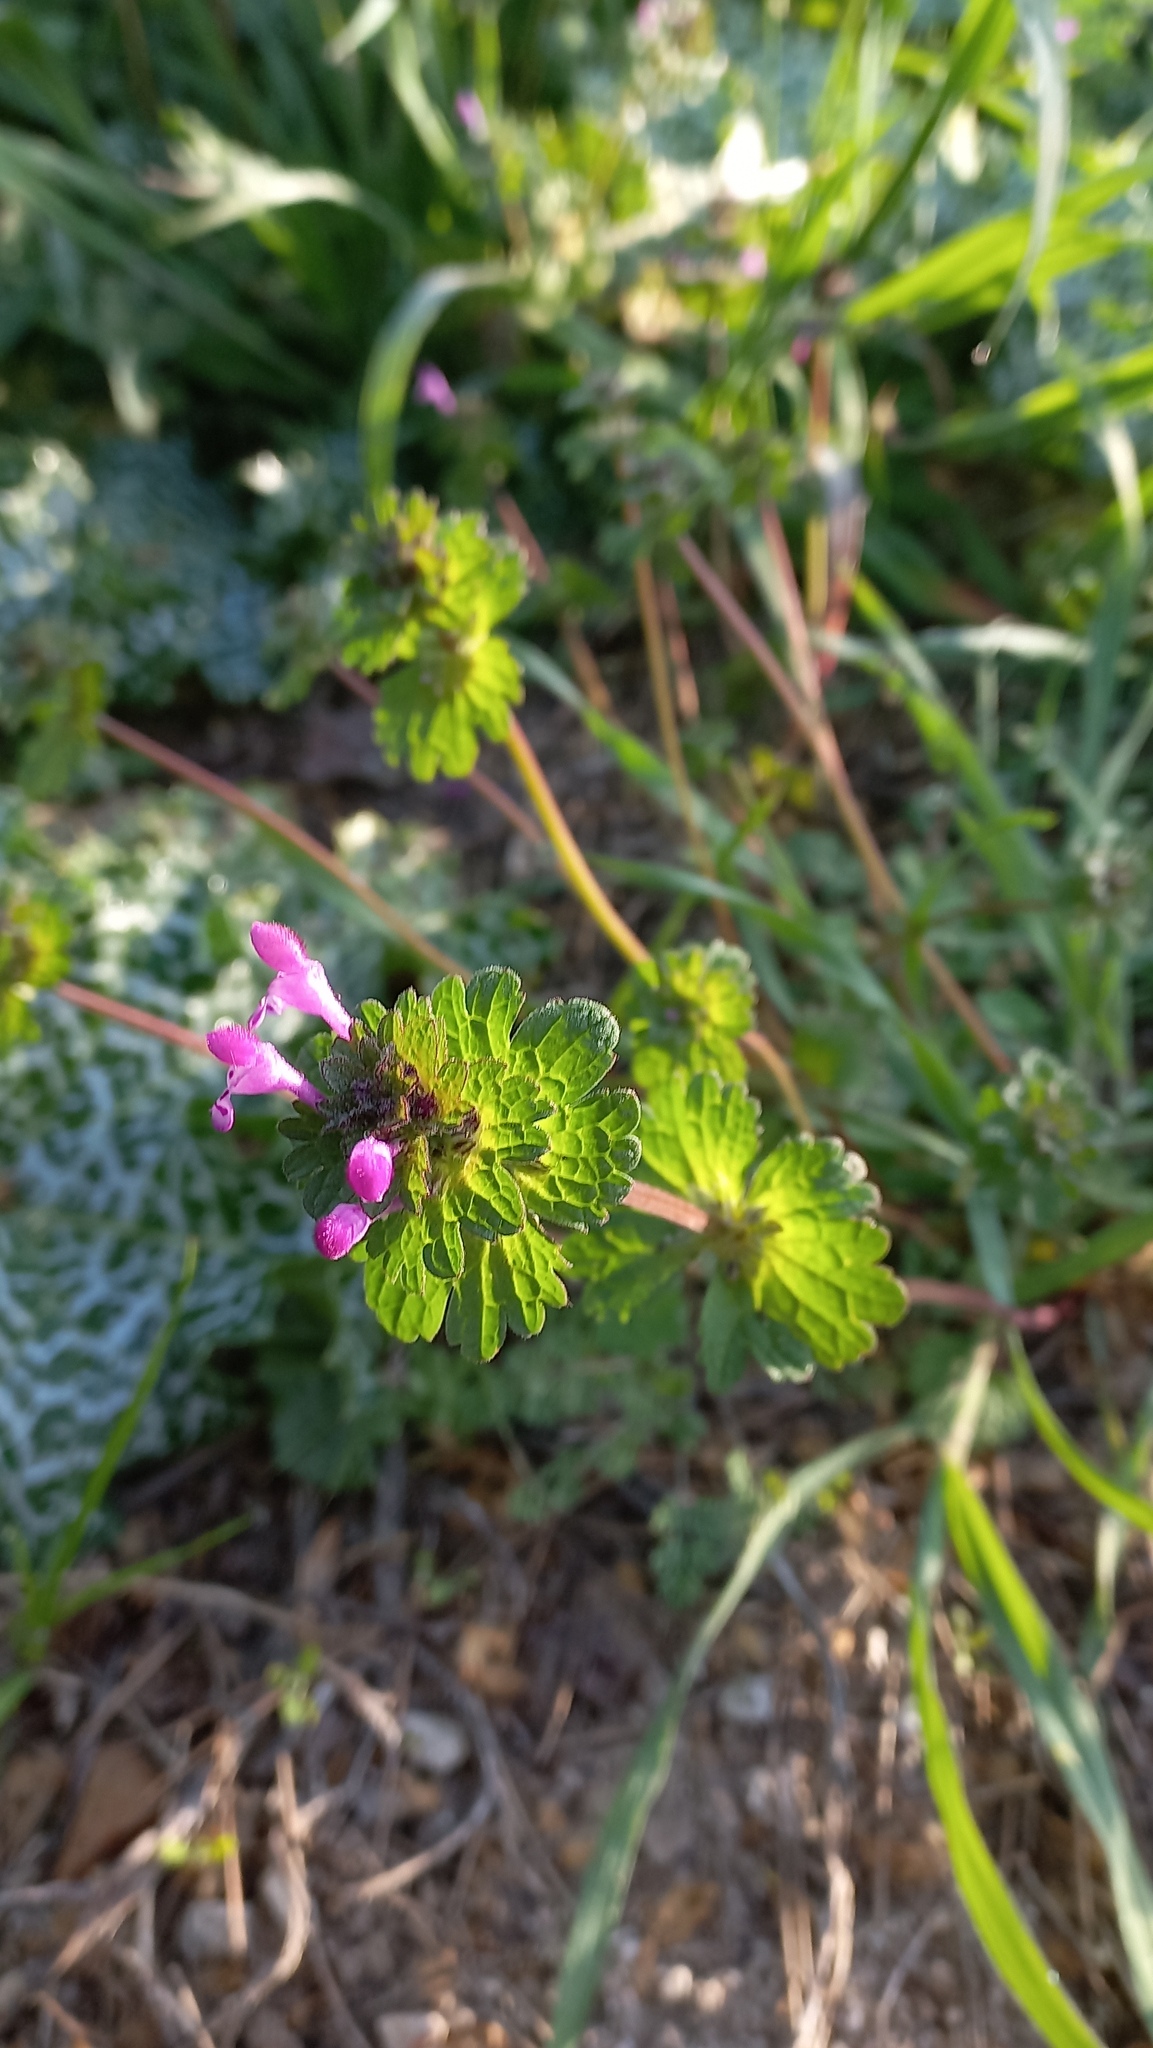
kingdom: Plantae
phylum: Tracheophyta
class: Magnoliopsida
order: Lamiales
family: Lamiaceae
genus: Lamium
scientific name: Lamium amplexicaule
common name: Henbit dead-nettle
